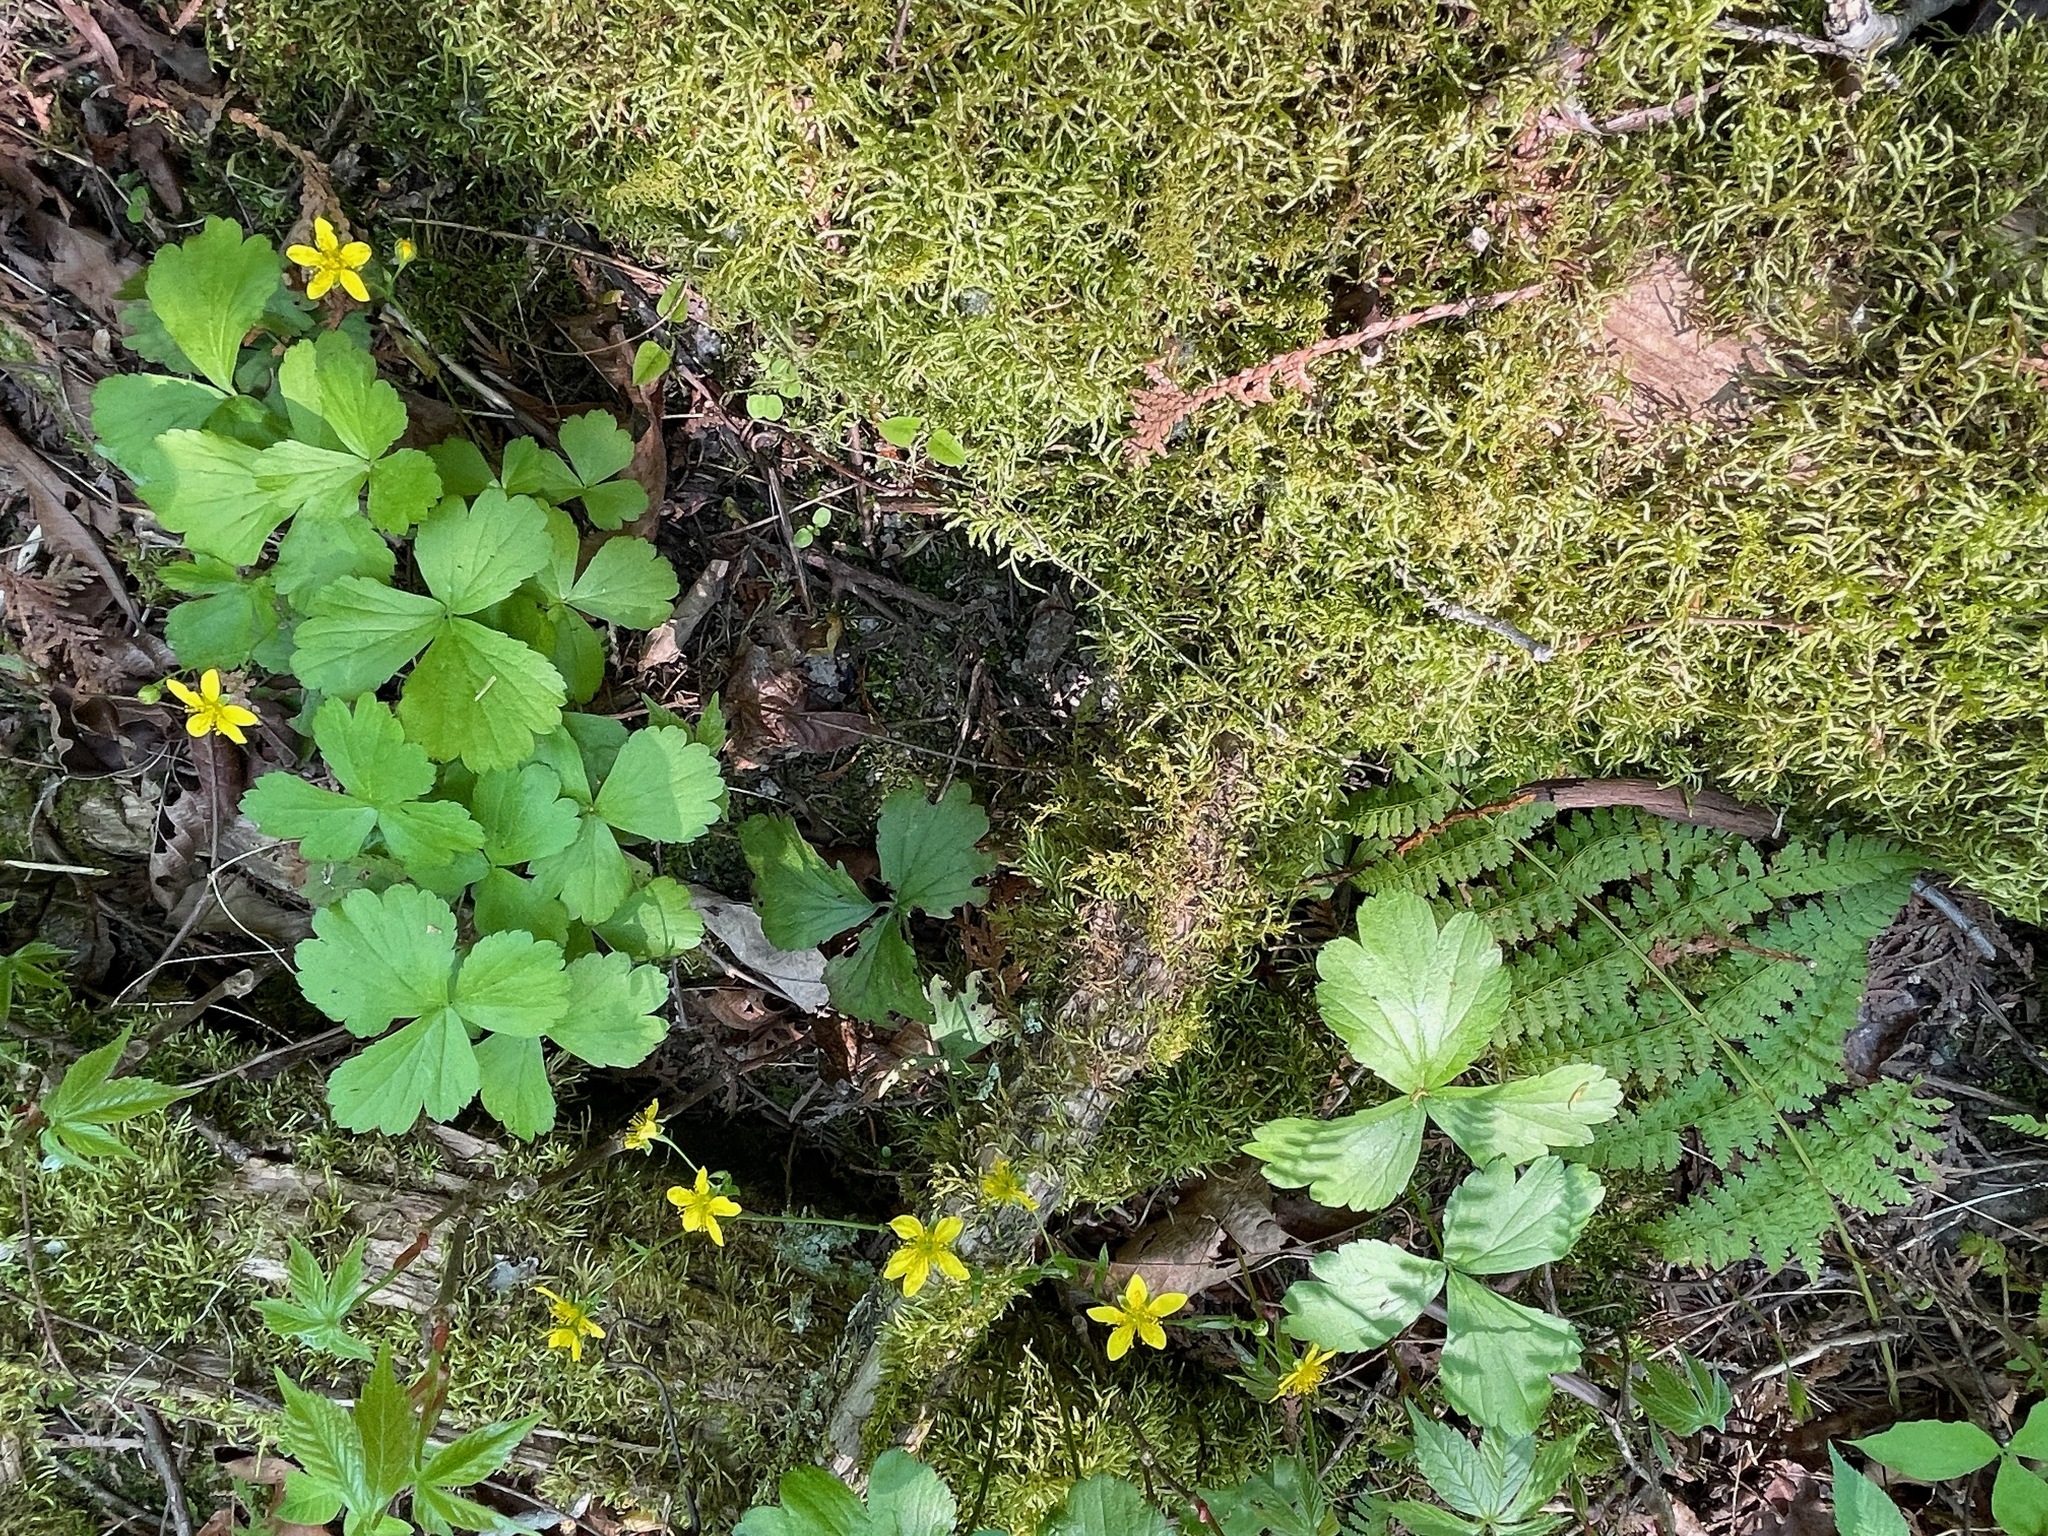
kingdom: Plantae
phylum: Tracheophyta
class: Magnoliopsida
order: Rosales
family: Rosaceae
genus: Geum
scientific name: Geum fragarioides
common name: Appalachian barren strawberry
